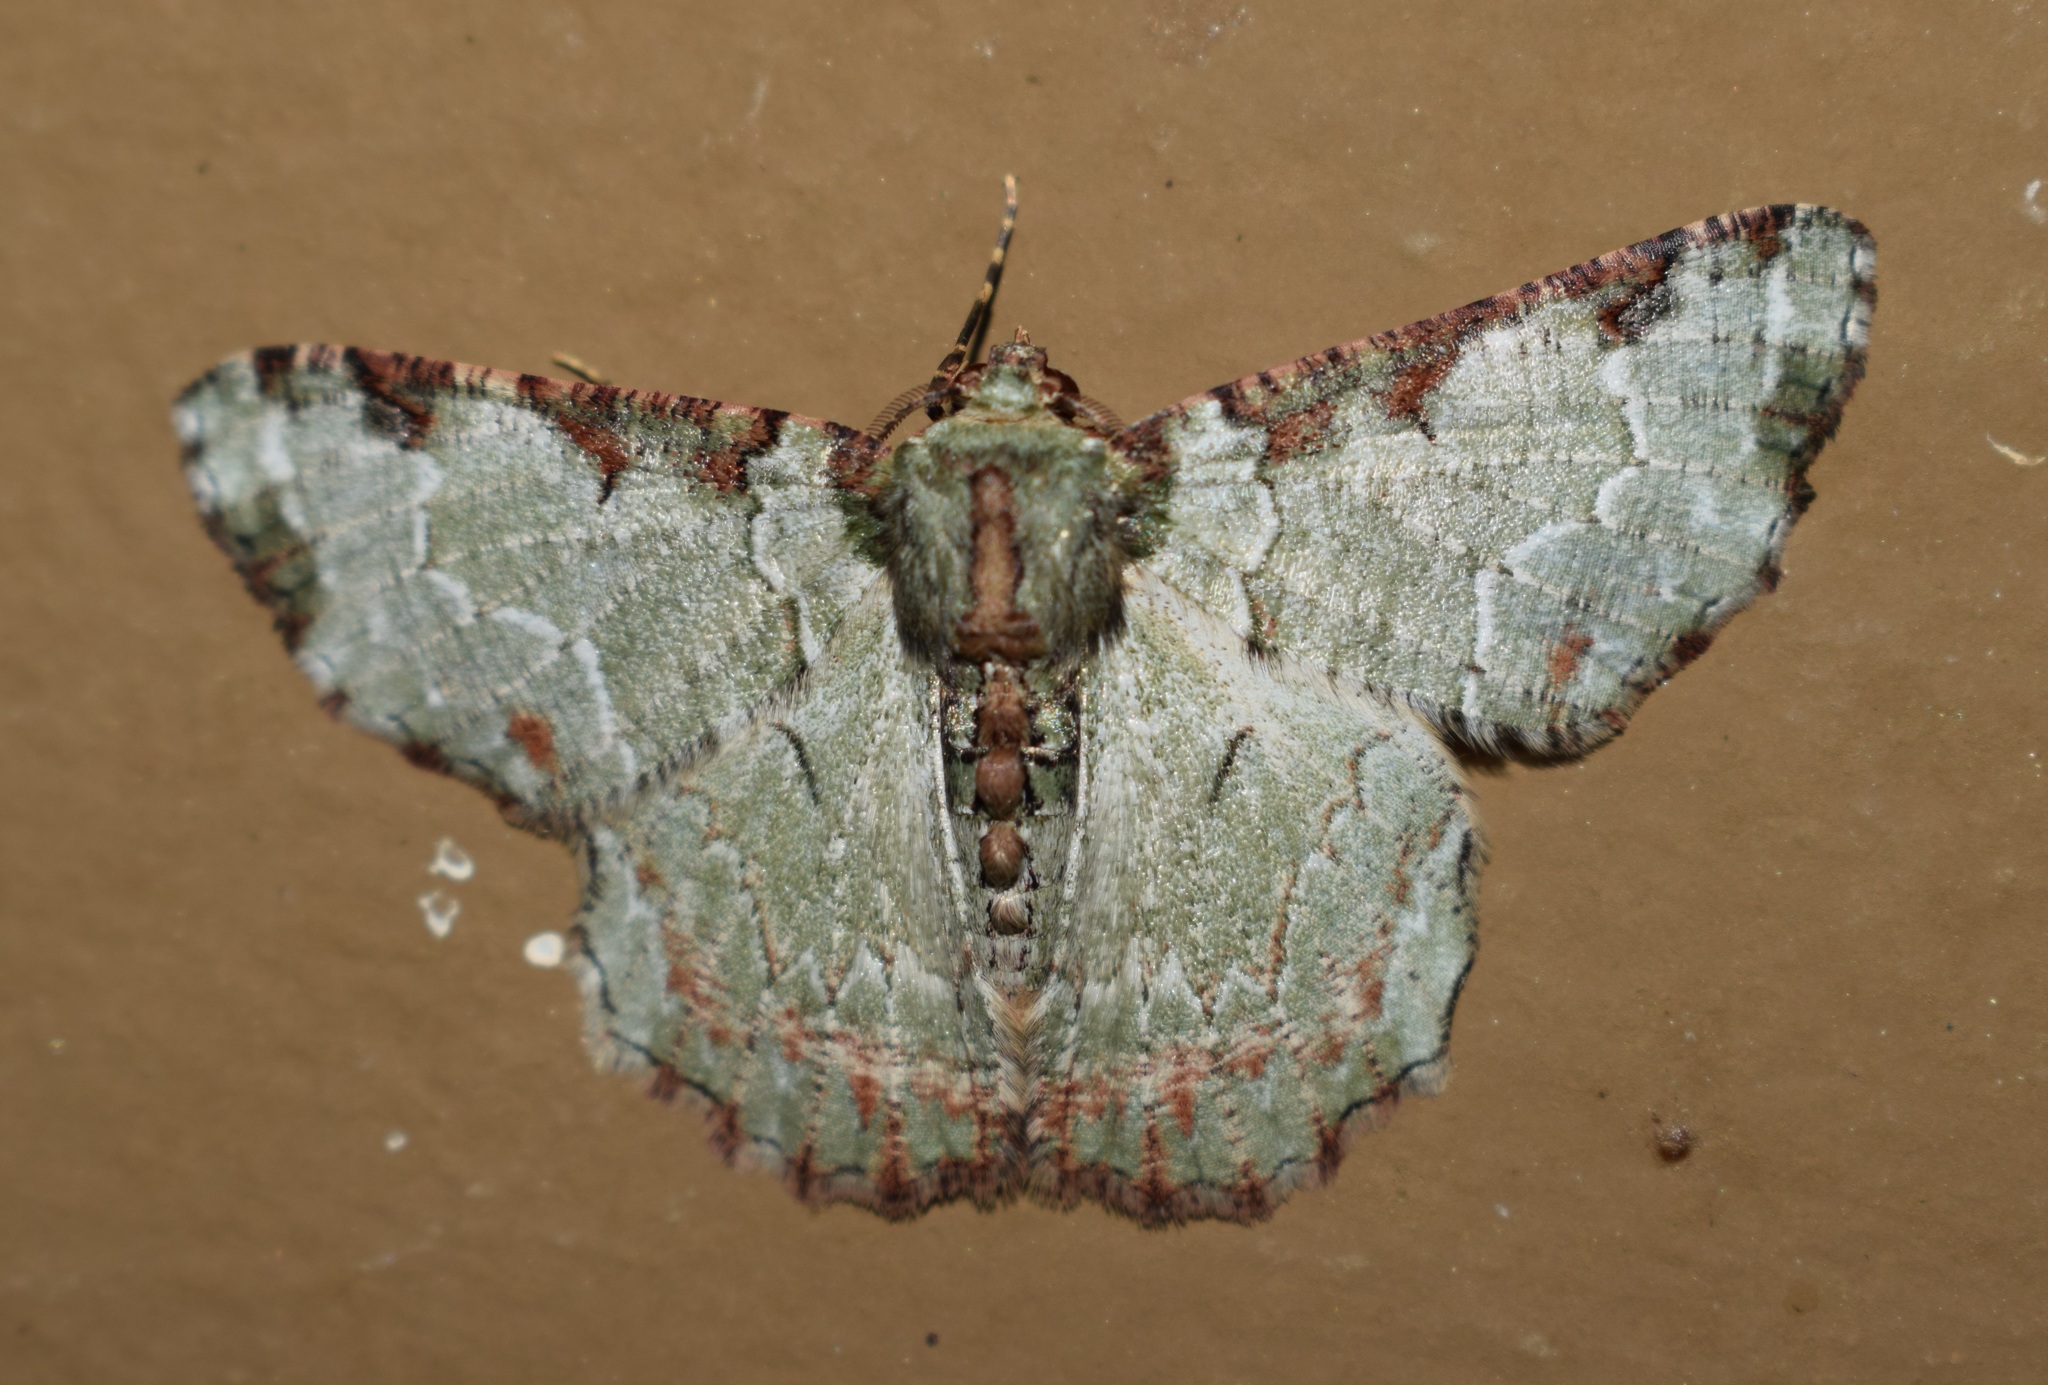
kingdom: Animalia
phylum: Arthropoda
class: Insecta
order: Lepidoptera
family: Geometridae
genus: Lophophelma
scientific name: Lophophelma ruficosta
